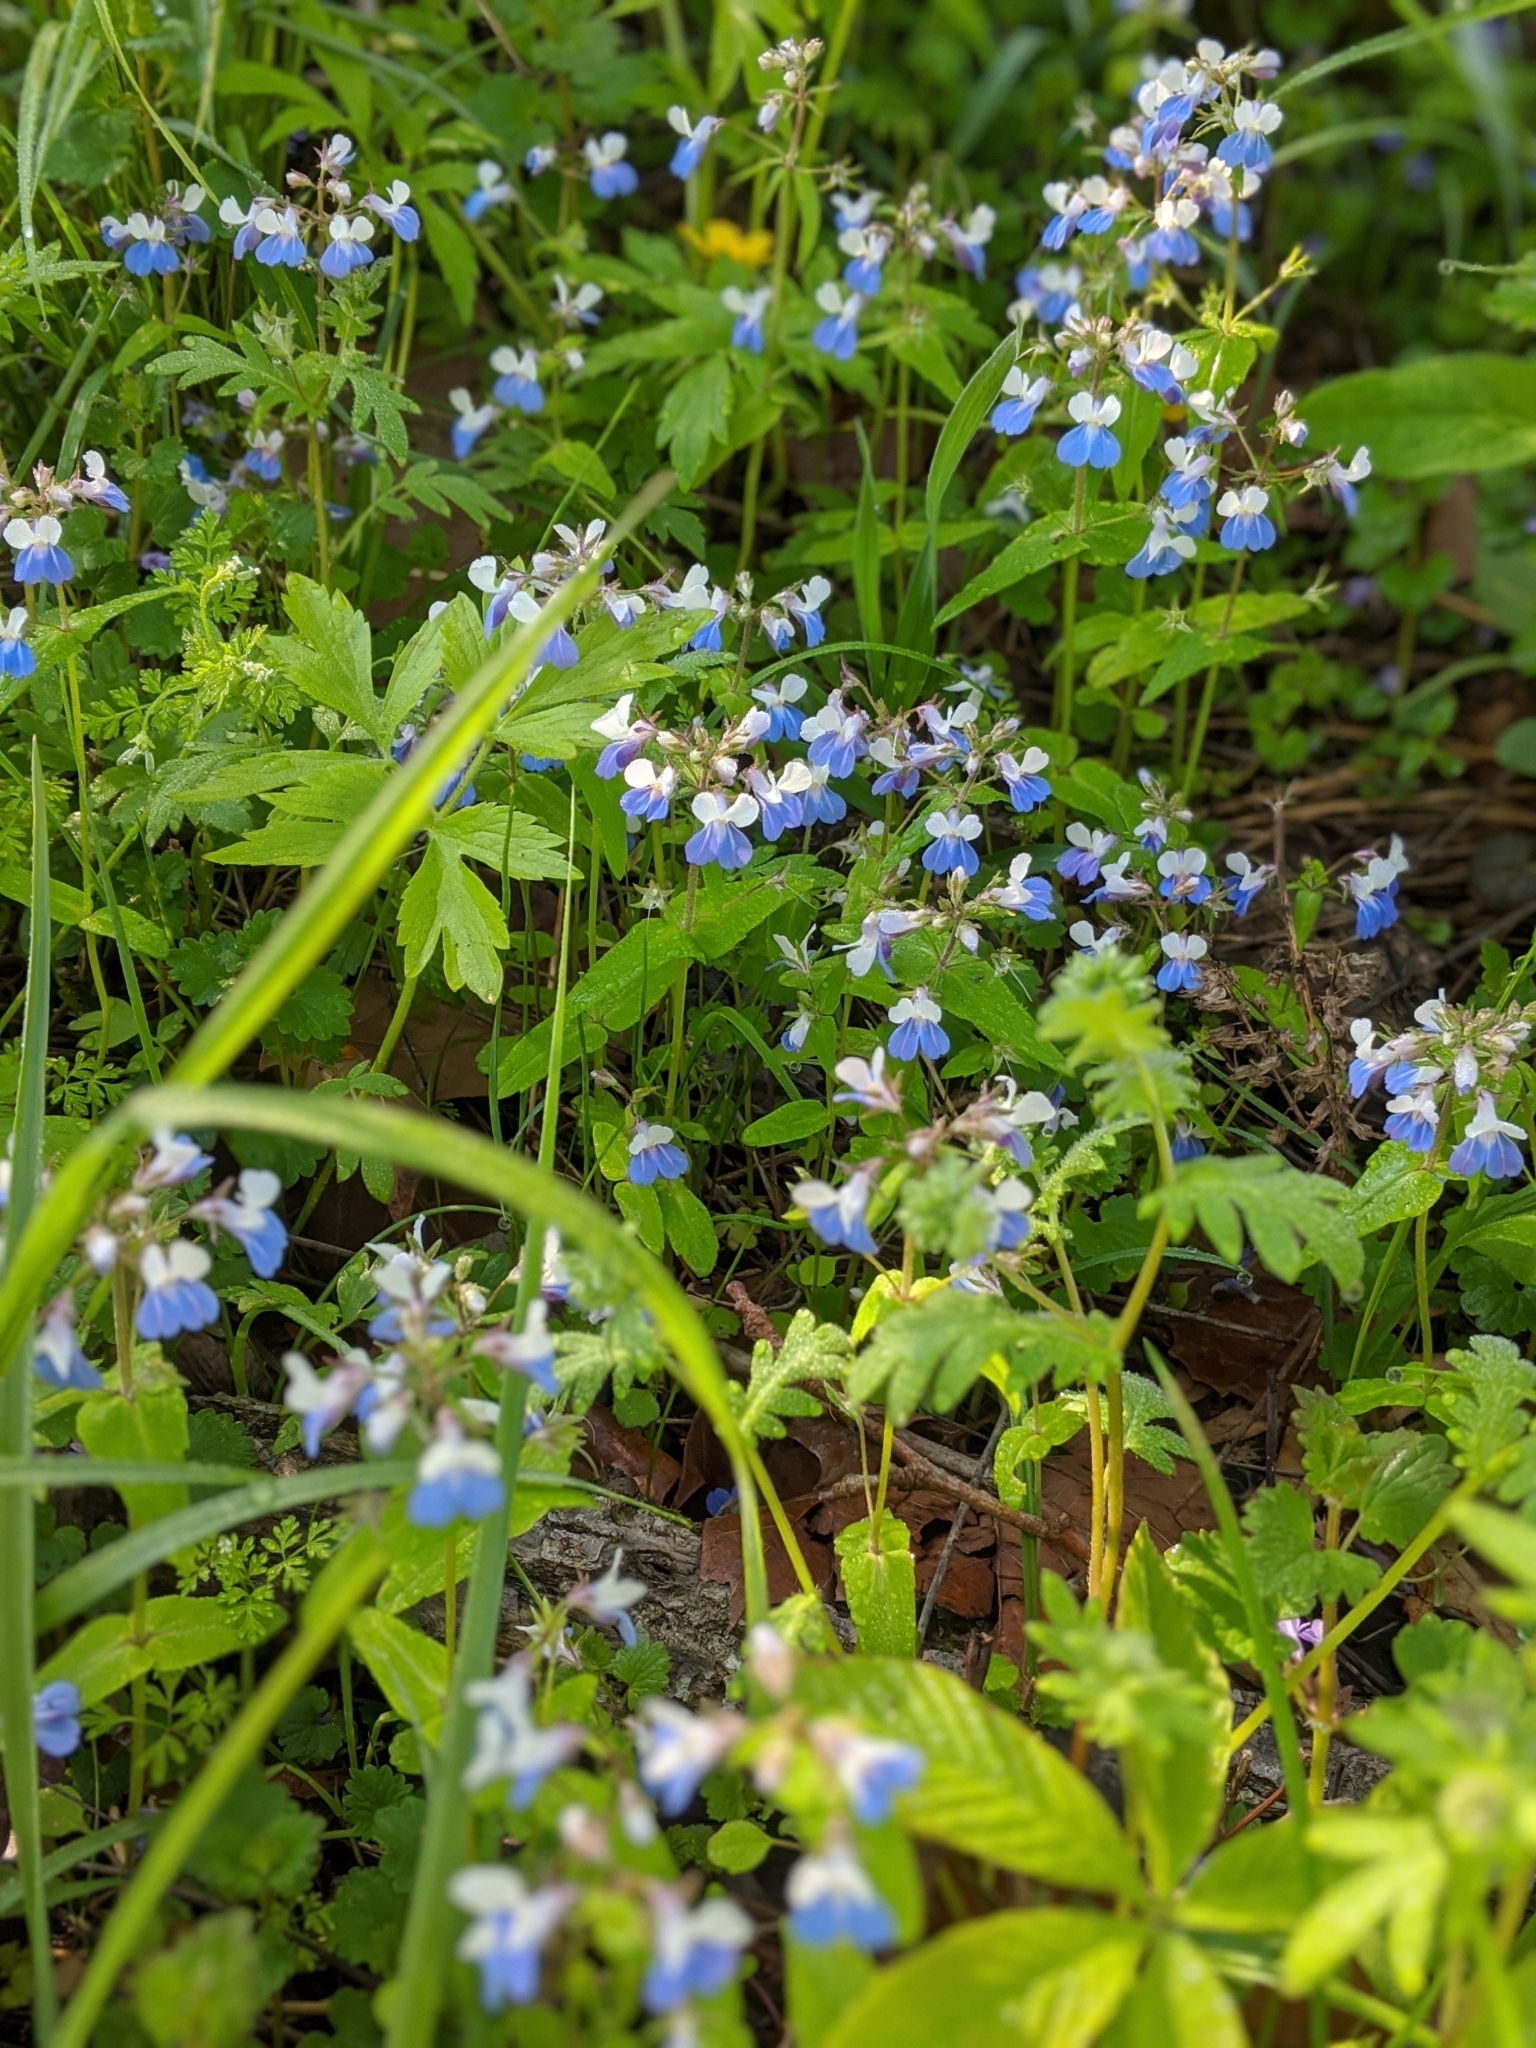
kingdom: Plantae
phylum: Tracheophyta
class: Magnoliopsida
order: Lamiales
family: Plantaginaceae
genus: Collinsia
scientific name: Collinsia verna
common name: Broad-leaved collinsia
